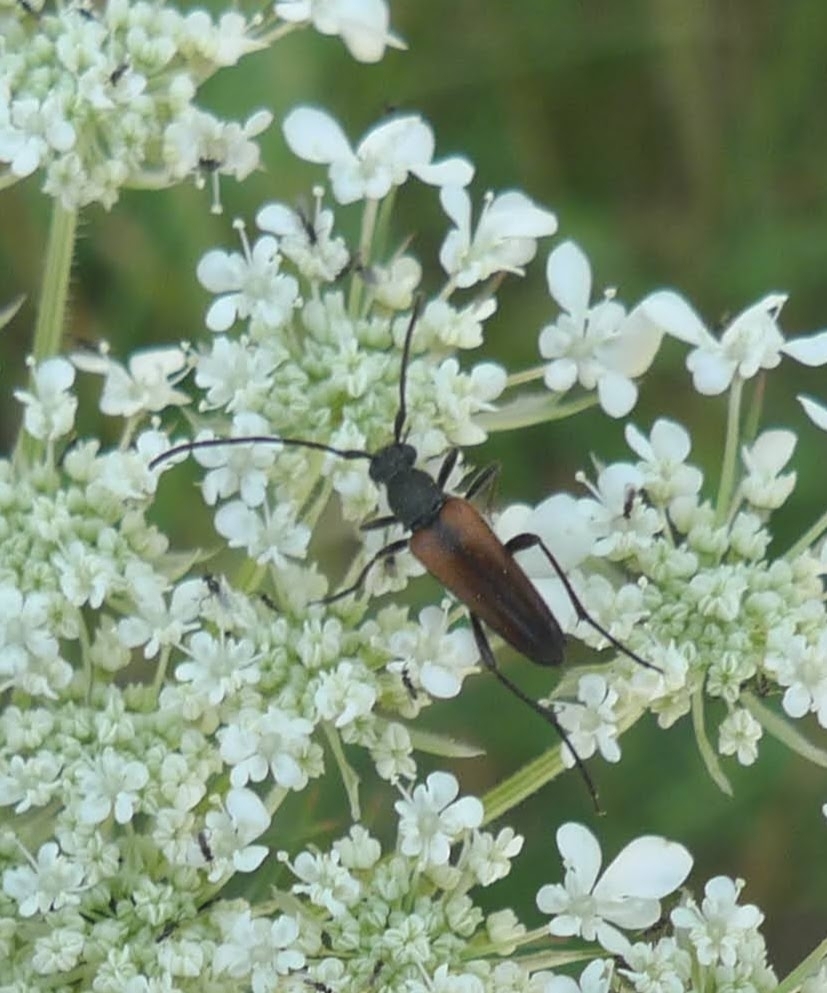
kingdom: Animalia
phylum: Arthropoda
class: Insecta
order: Coleoptera
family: Cerambycidae
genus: Stenurella
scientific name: Stenurella melanura
